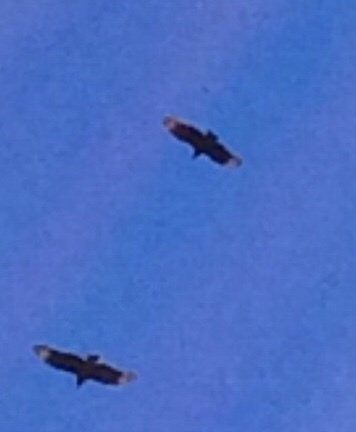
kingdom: Animalia
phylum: Chordata
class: Aves
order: Accipitriformes
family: Cathartidae
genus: Coragyps
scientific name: Coragyps atratus
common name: Black vulture
